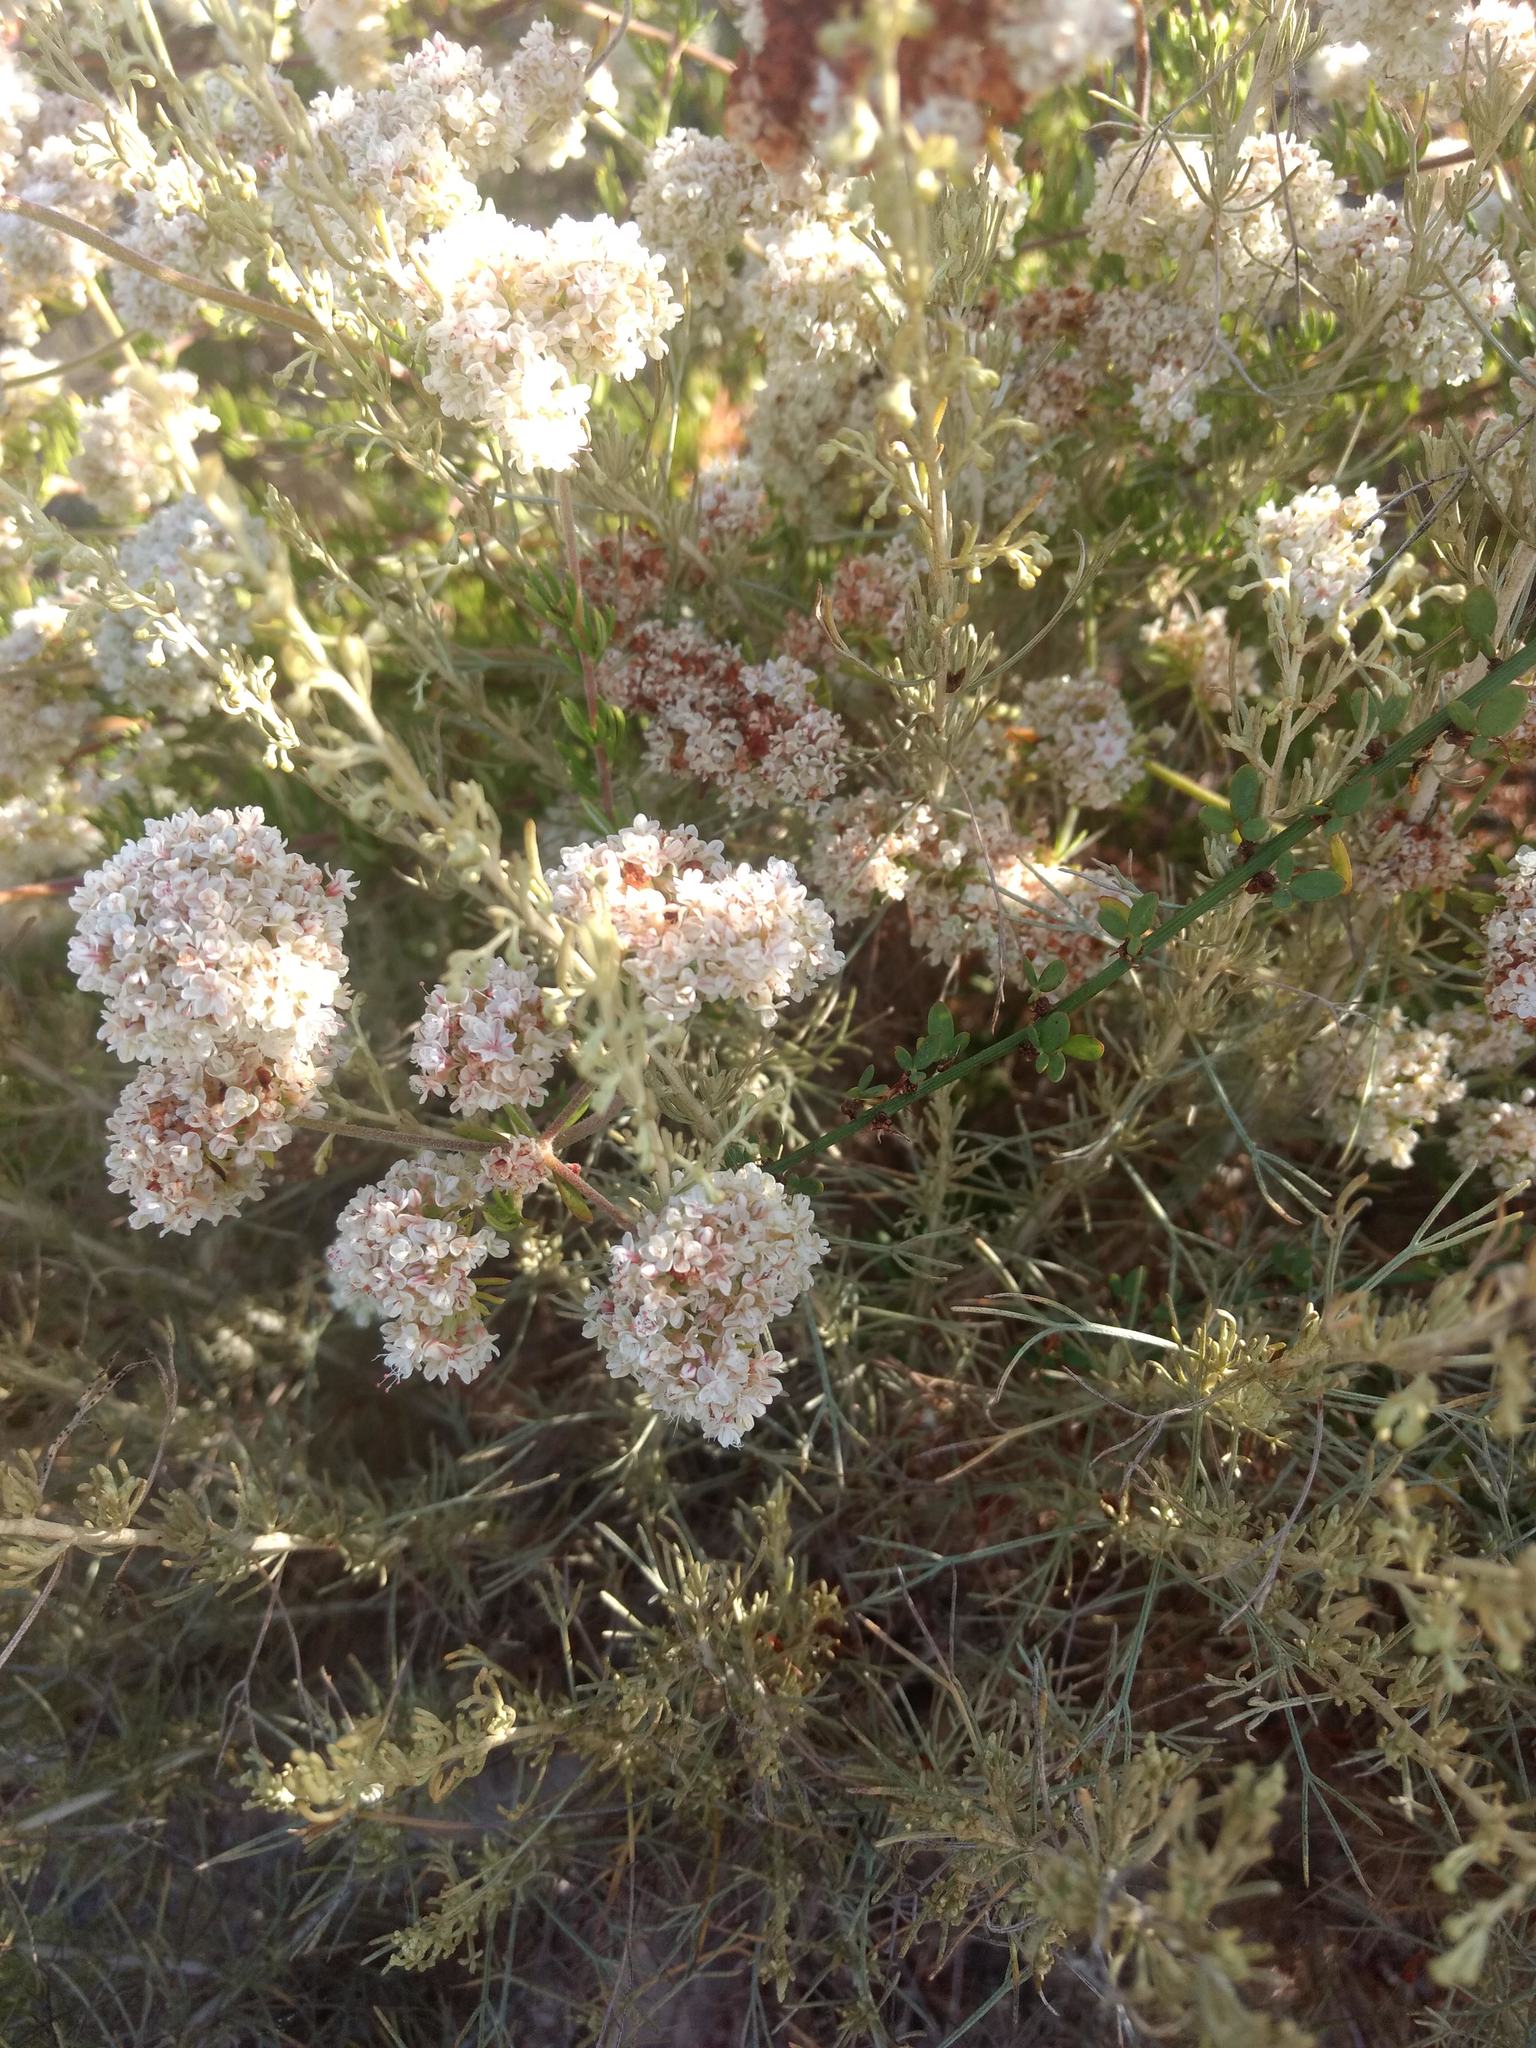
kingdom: Plantae
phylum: Tracheophyta
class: Magnoliopsida
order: Caryophyllales
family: Polygonaceae
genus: Eriogonum
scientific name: Eriogonum fasciculatum
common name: California wild buckwheat
